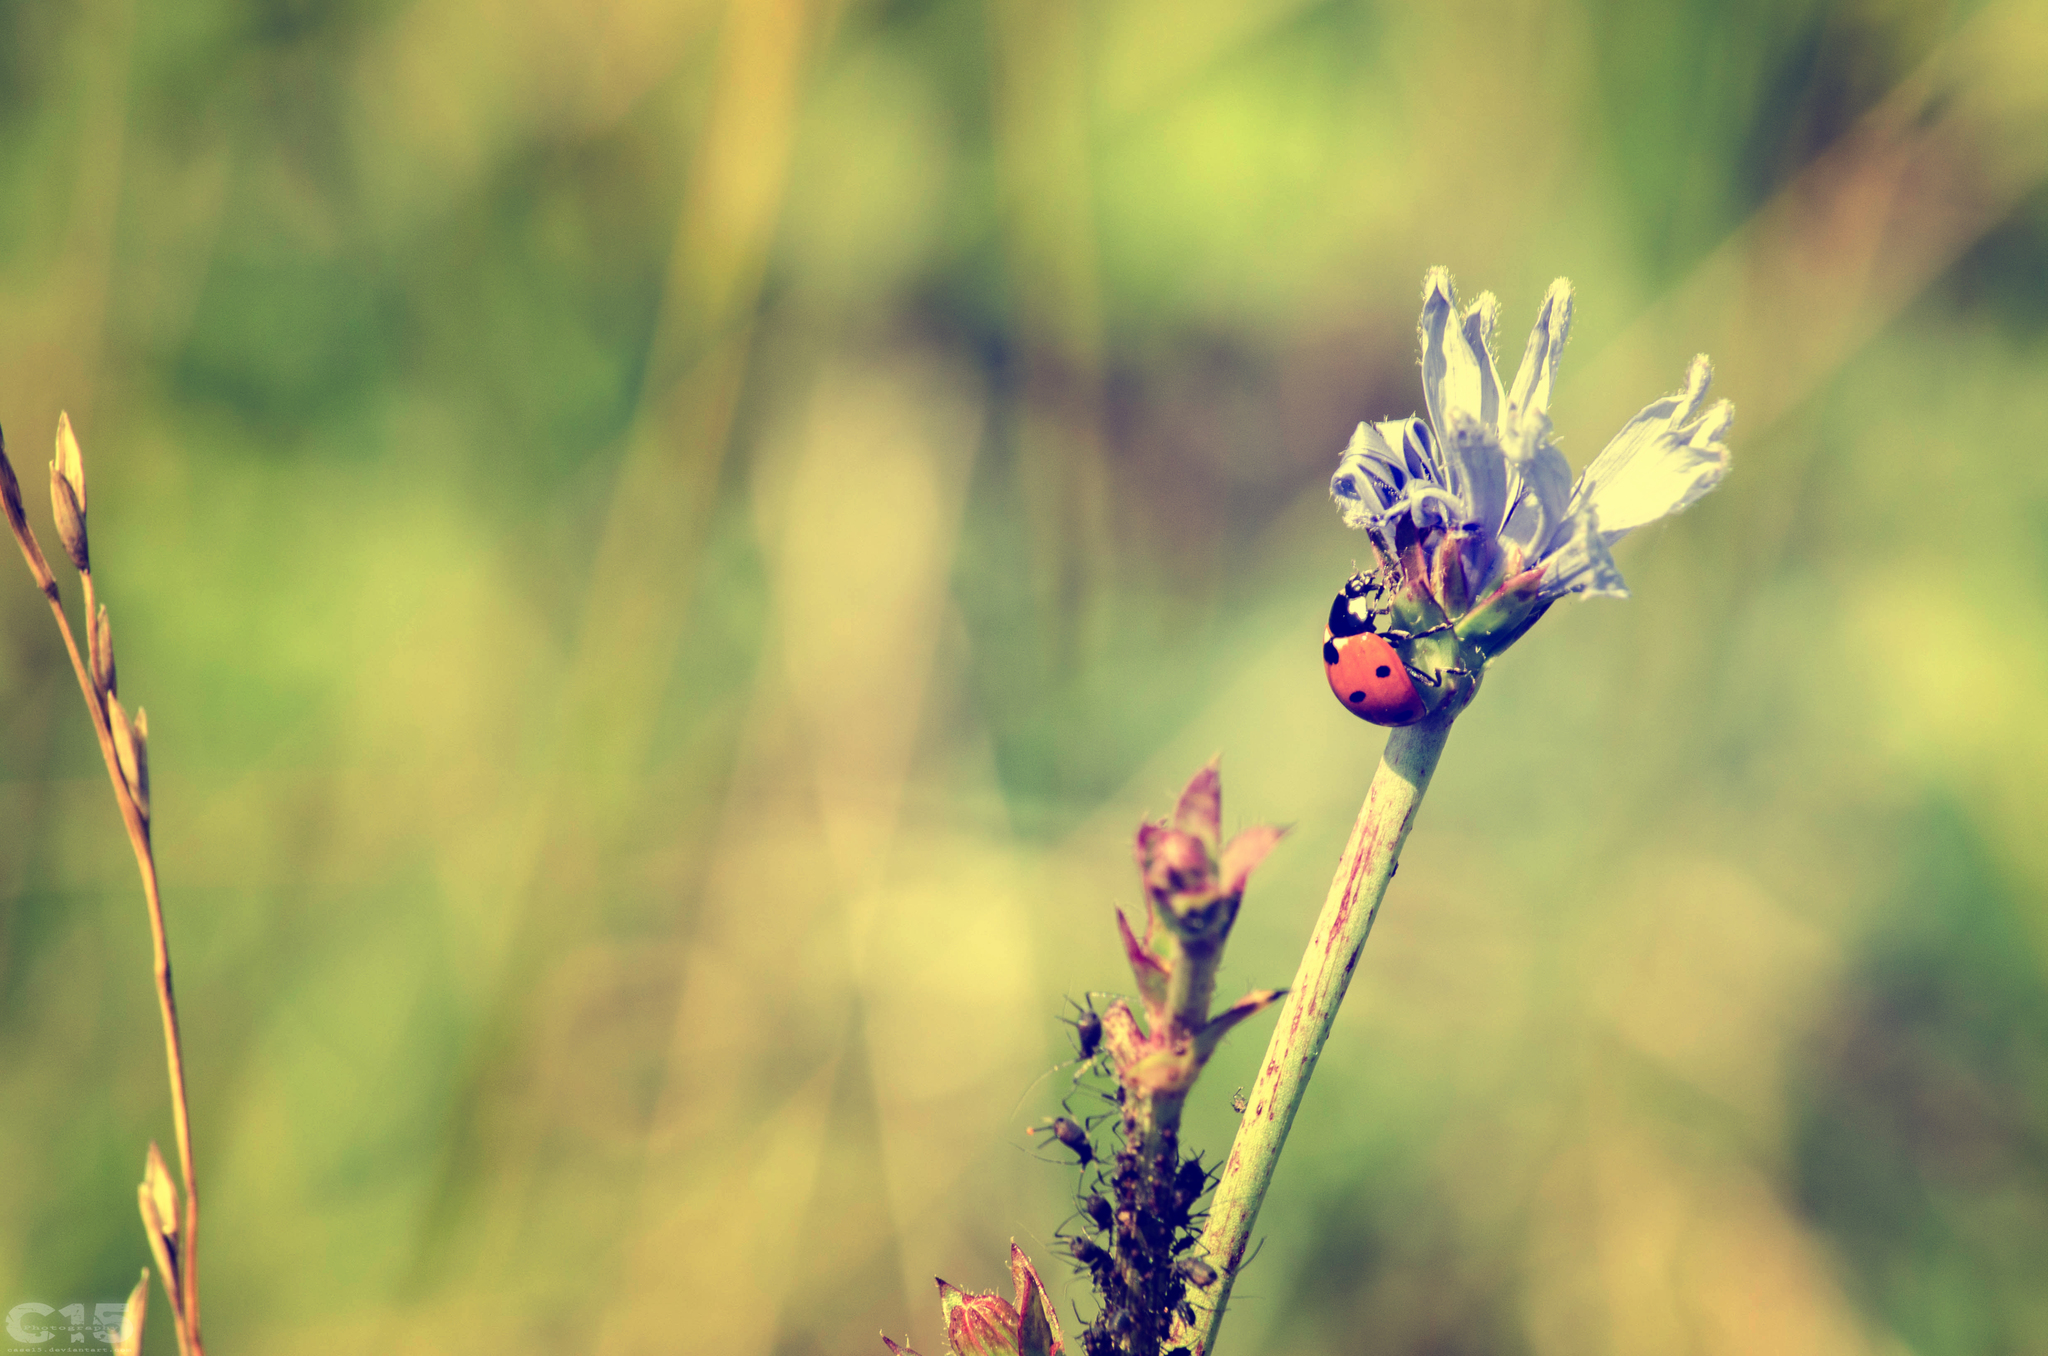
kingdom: Animalia
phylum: Arthropoda
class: Insecta
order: Coleoptera
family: Coccinellidae
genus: Coccinella
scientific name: Coccinella septempunctata
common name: Sevenspotted lady beetle
